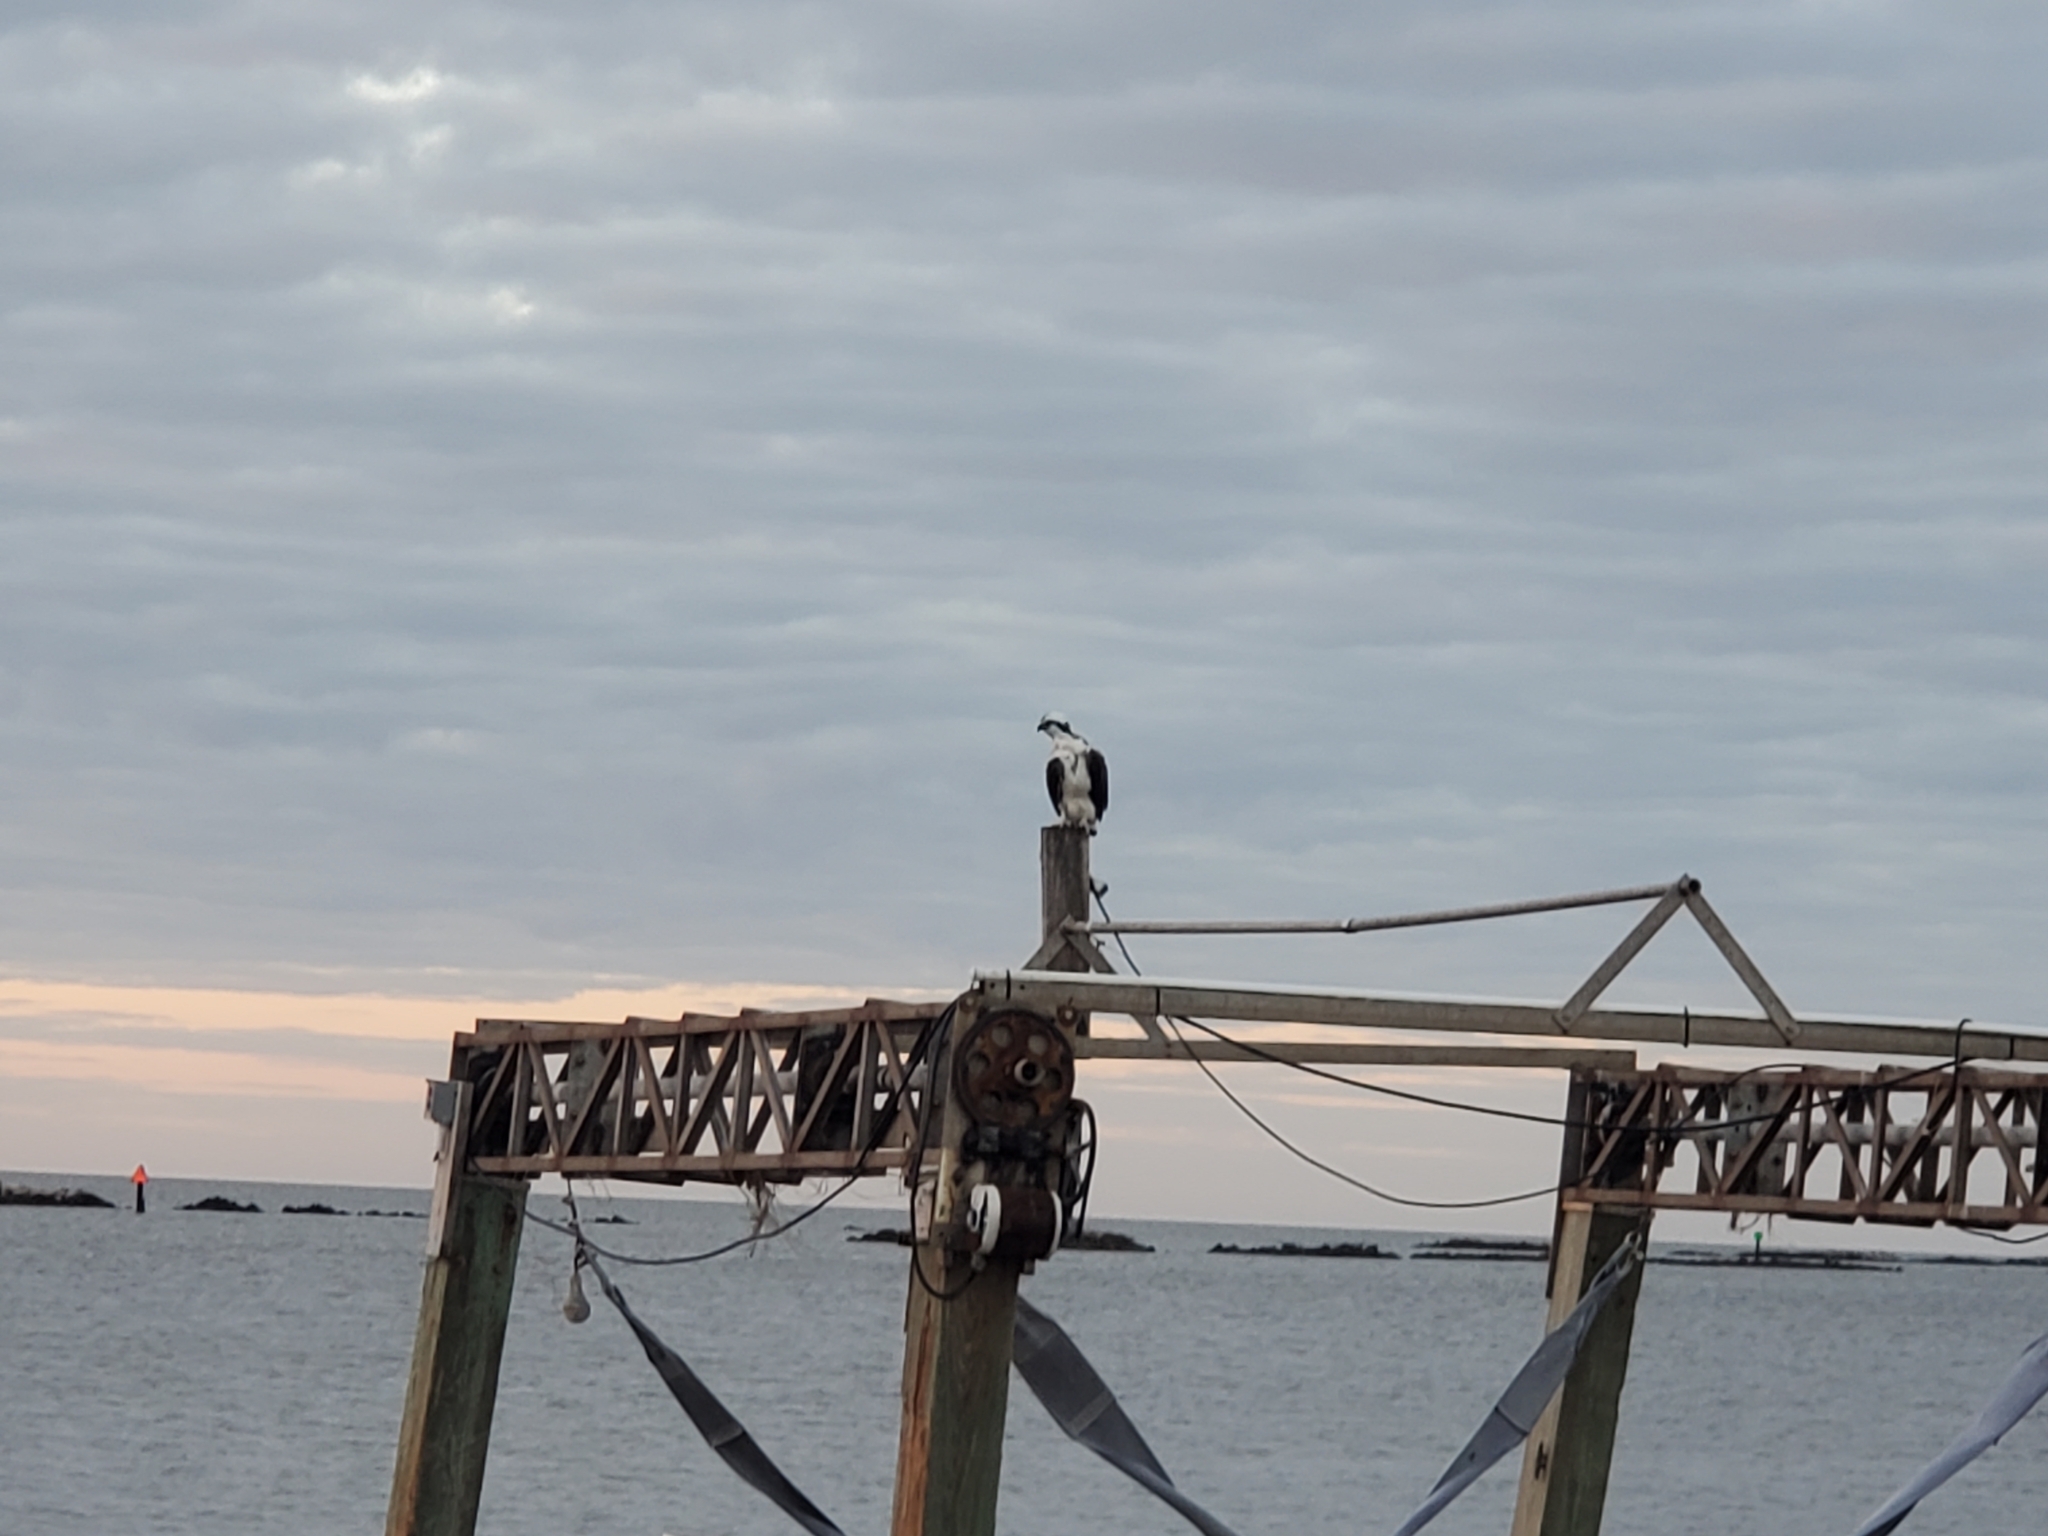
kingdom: Animalia
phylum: Chordata
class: Aves
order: Accipitriformes
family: Pandionidae
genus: Pandion
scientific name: Pandion haliaetus
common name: Osprey
